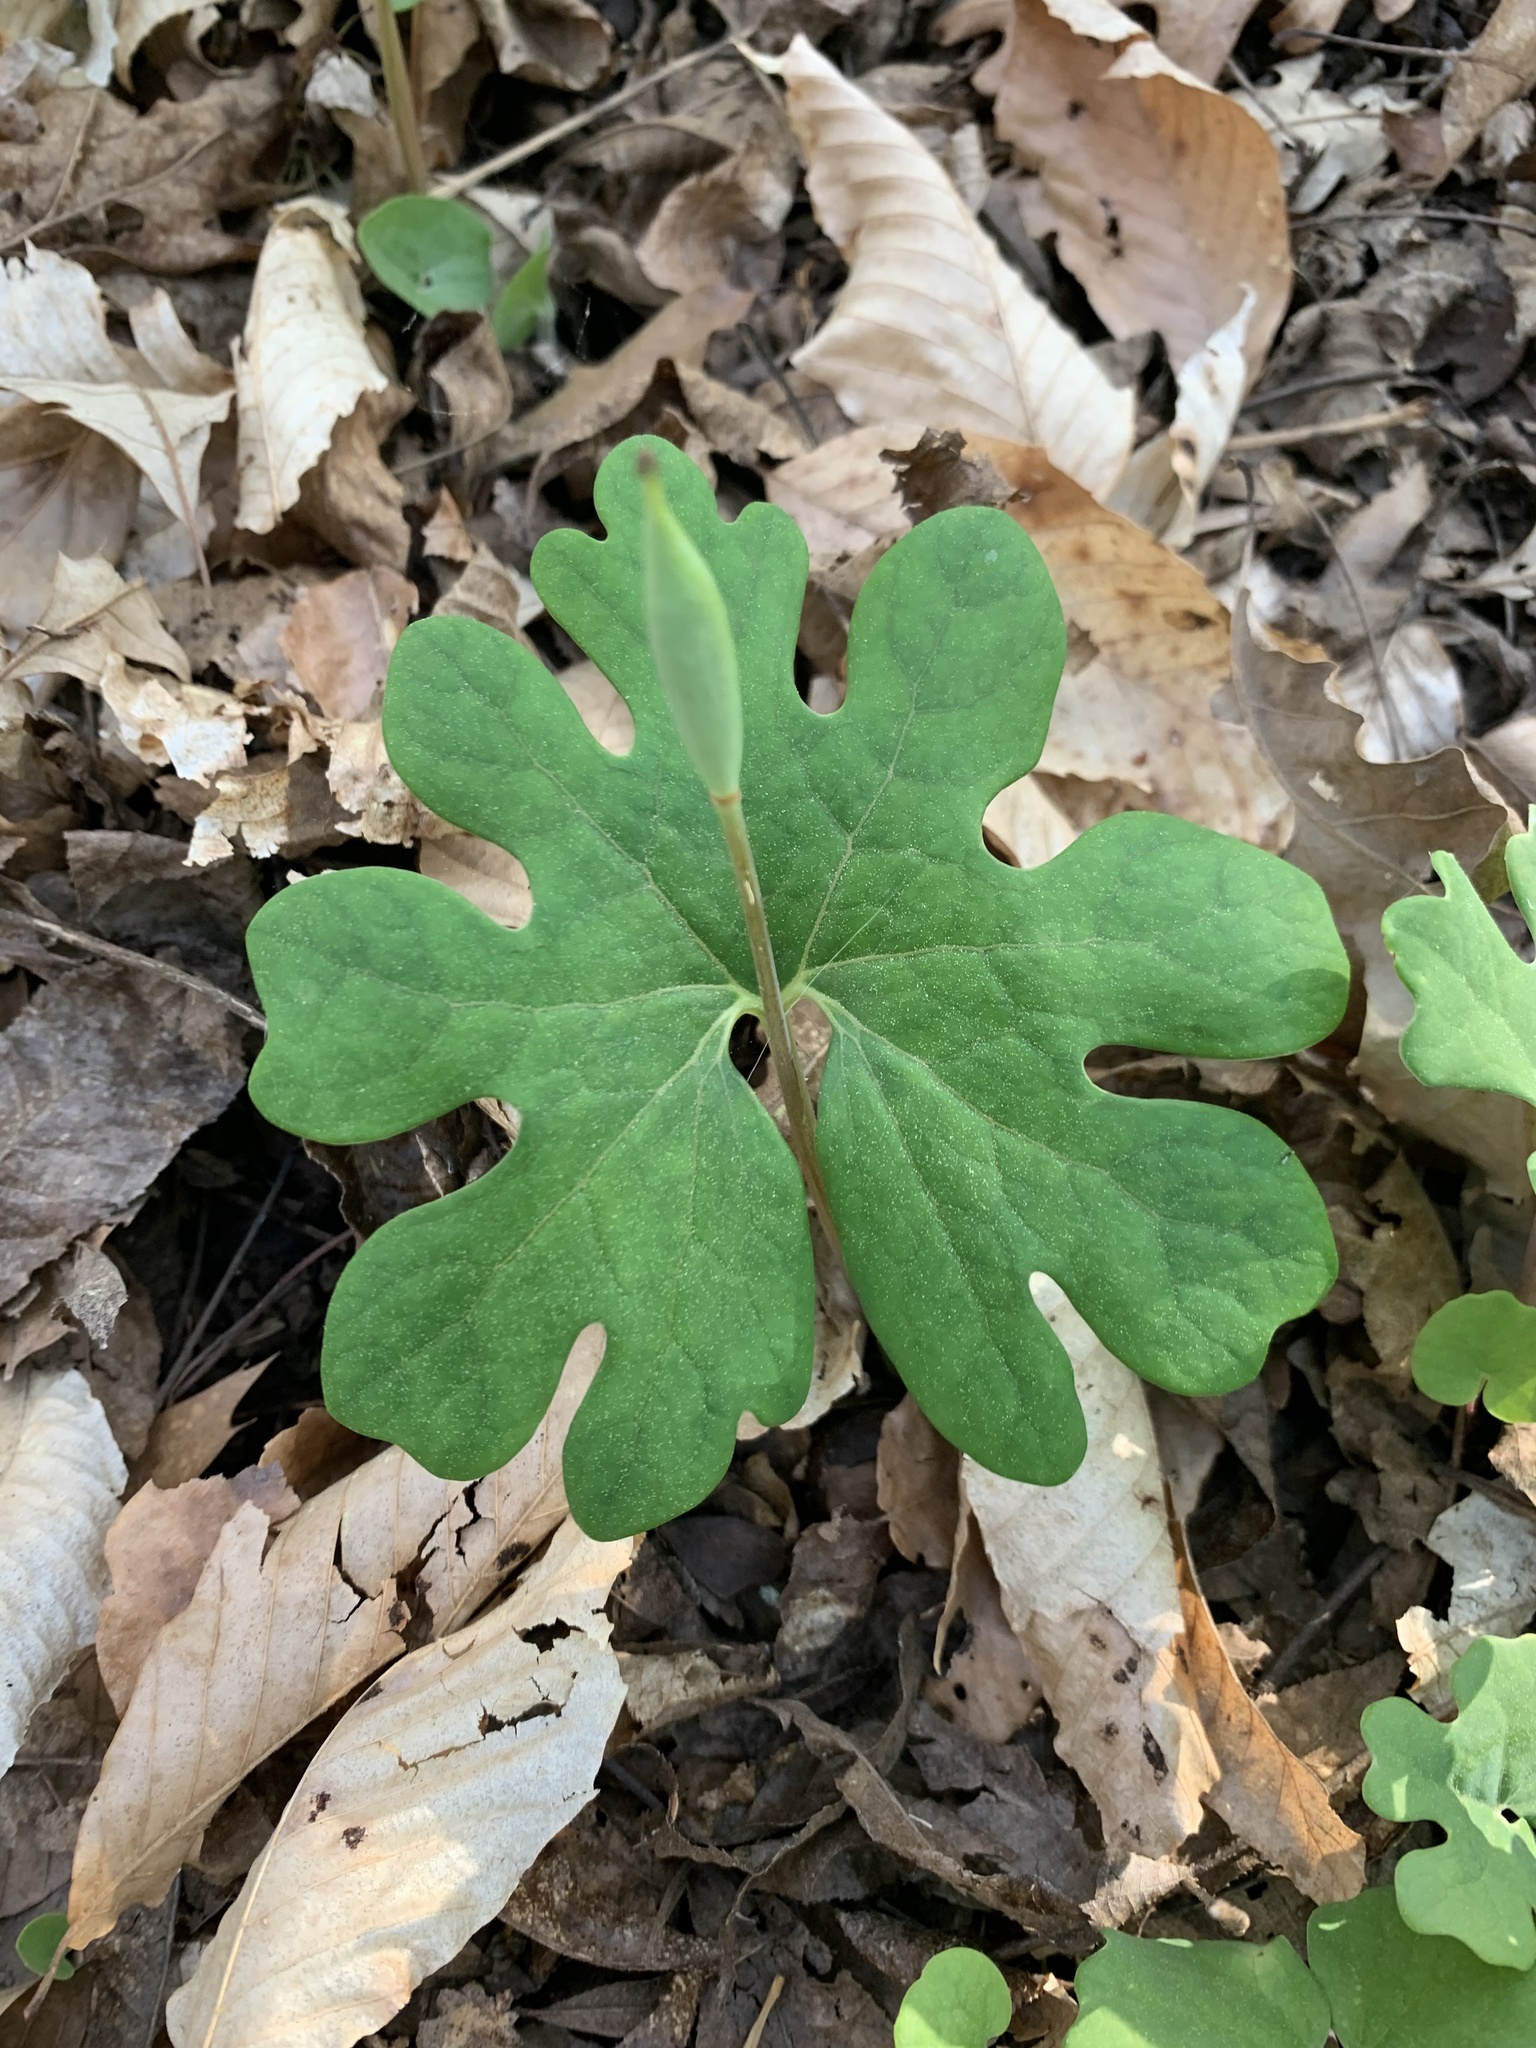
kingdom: Plantae
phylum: Tracheophyta
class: Magnoliopsida
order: Ranunculales
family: Papaveraceae
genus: Sanguinaria
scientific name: Sanguinaria canadensis
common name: Bloodroot
